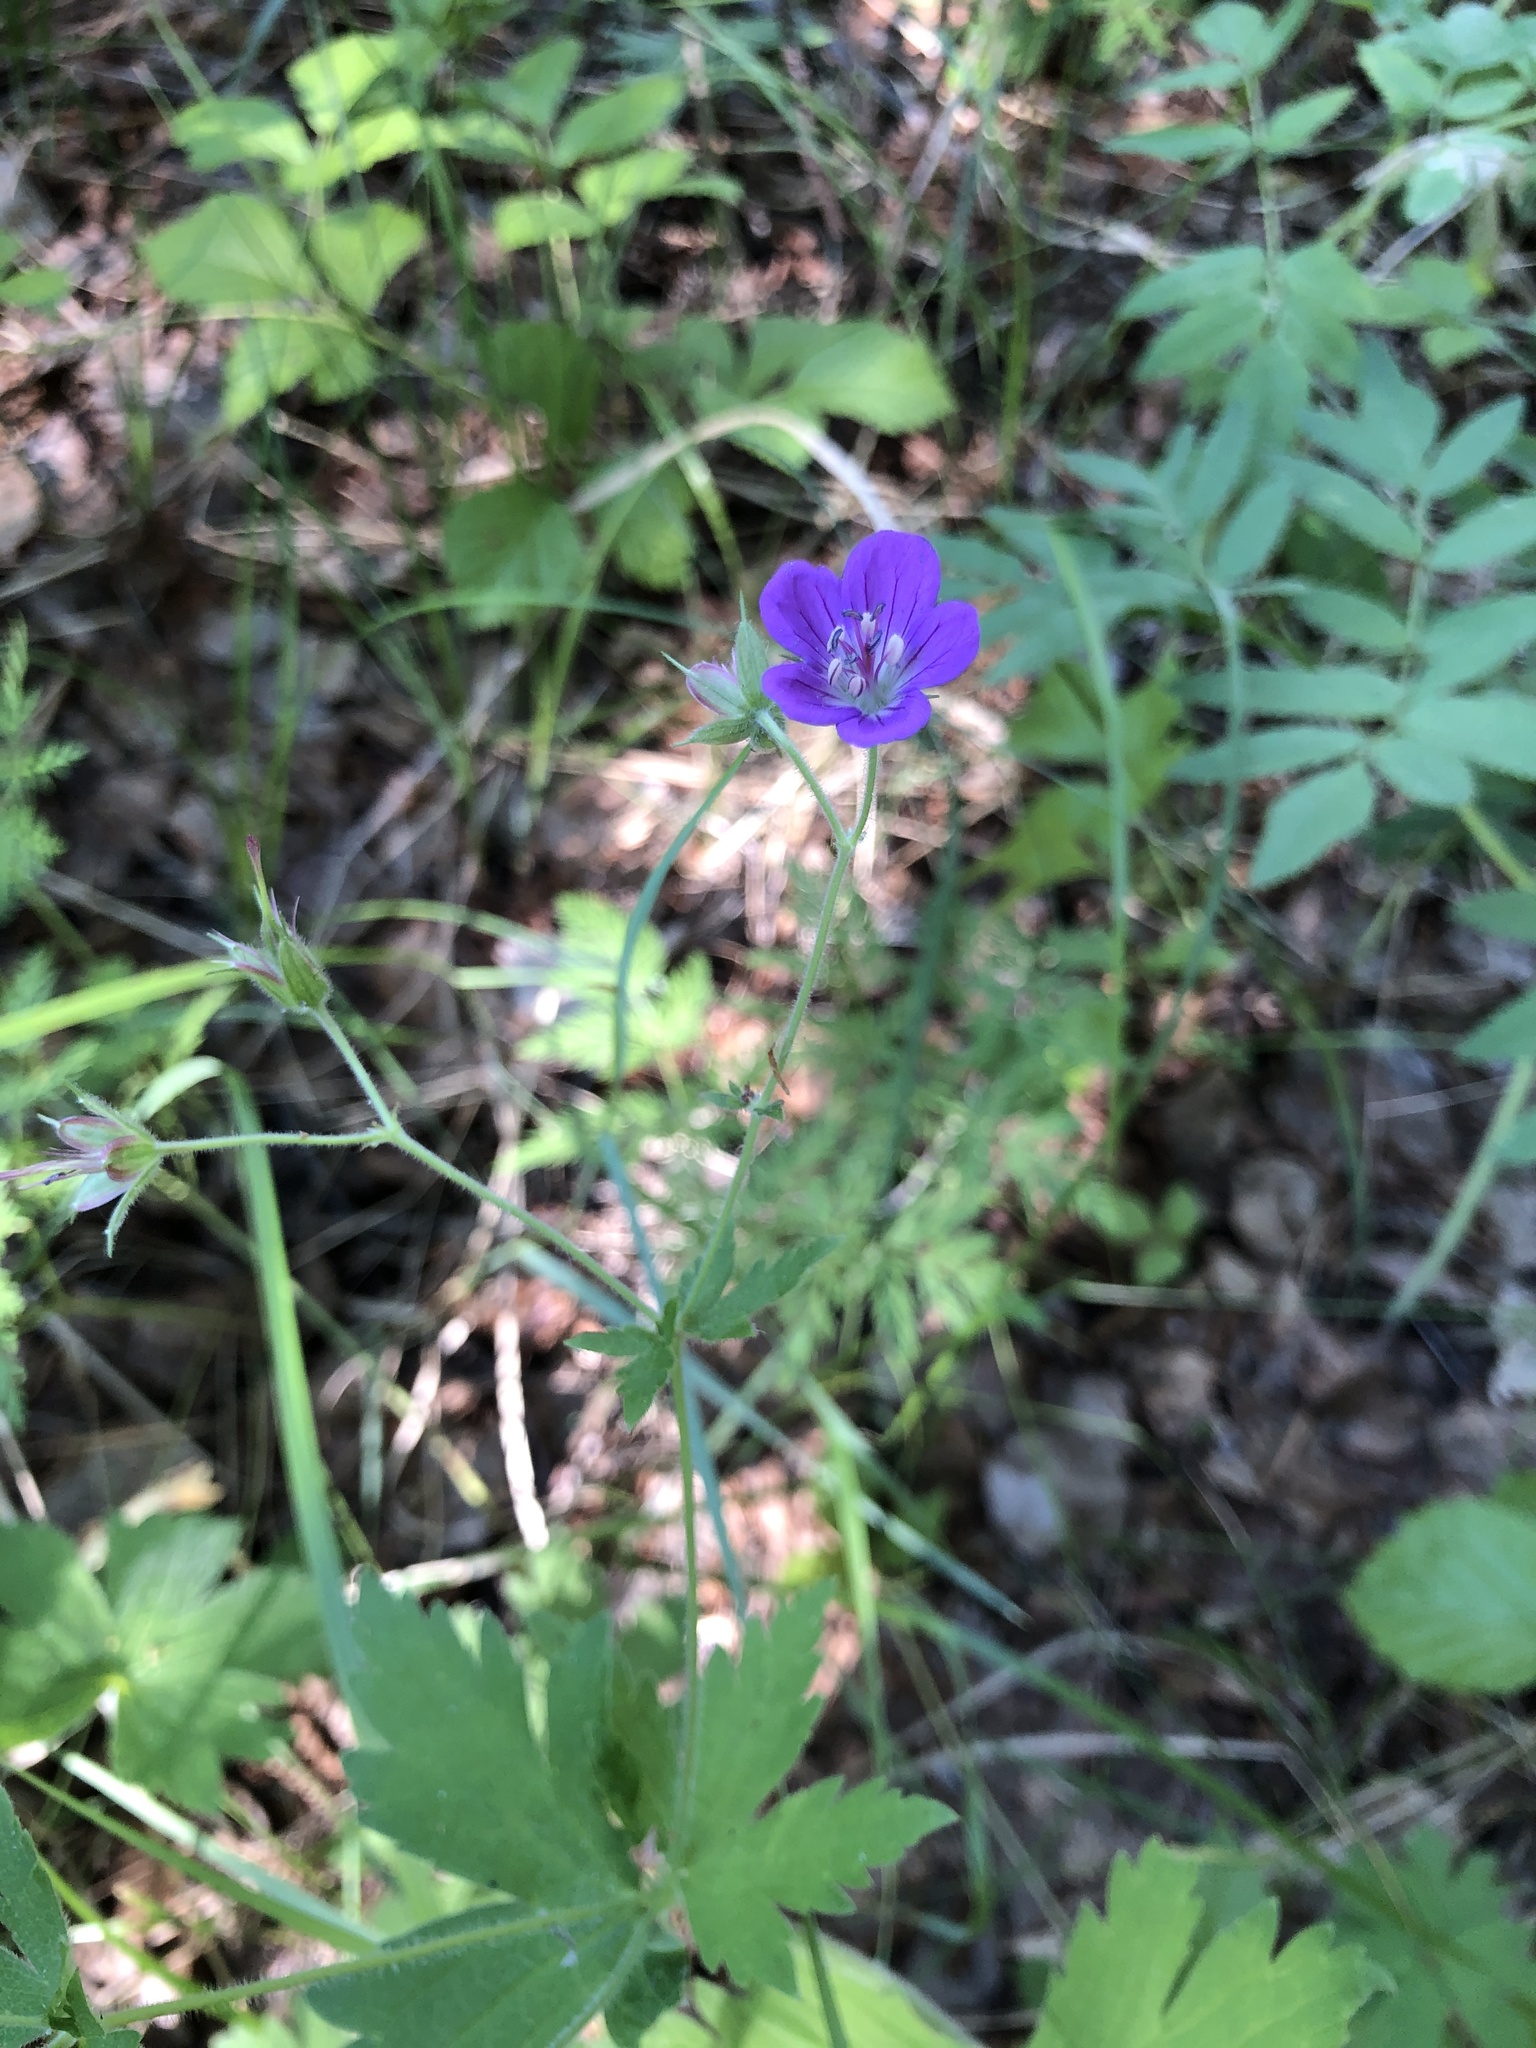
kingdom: Plantae
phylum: Tracheophyta
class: Magnoliopsida
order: Geraniales
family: Geraniaceae
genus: Geranium
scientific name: Geranium sylvaticum
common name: Wood crane's-bill
